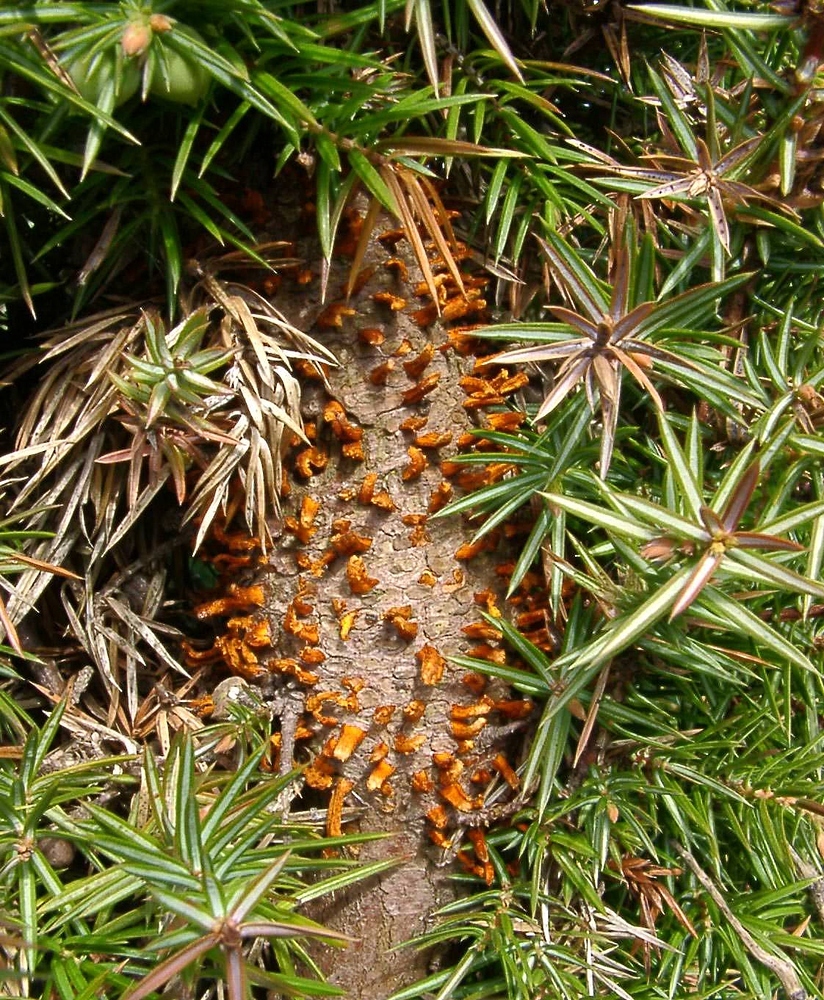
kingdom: Fungi
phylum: Basidiomycota
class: Pucciniomycetes
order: Pucciniales
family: Gymnosporangiaceae
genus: Gymnosporangium
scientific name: Gymnosporangium clavariiforme
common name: Tongues of fire
